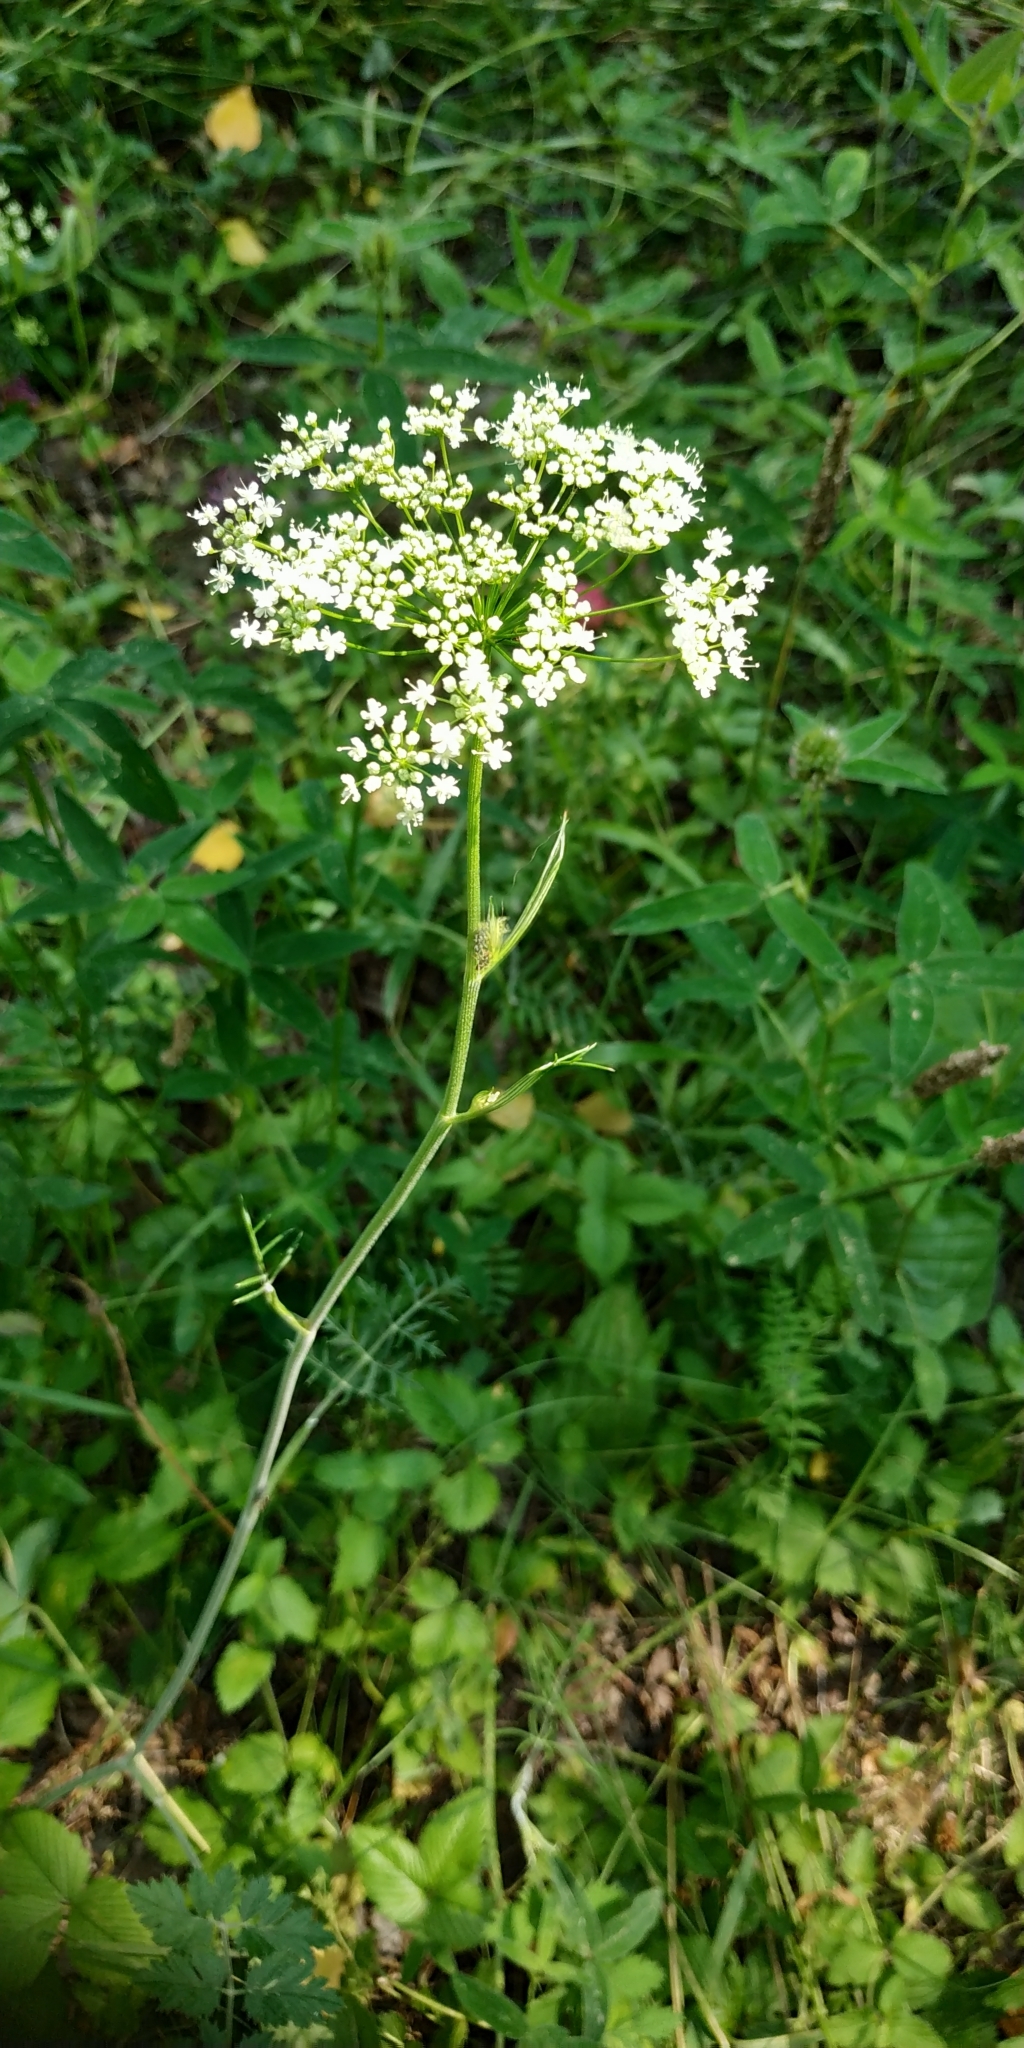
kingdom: Plantae
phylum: Tracheophyta
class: Magnoliopsida
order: Apiales
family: Apiaceae
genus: Pimpinella
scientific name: Pimpinella saxifraga
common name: Burnet-saxifrage
